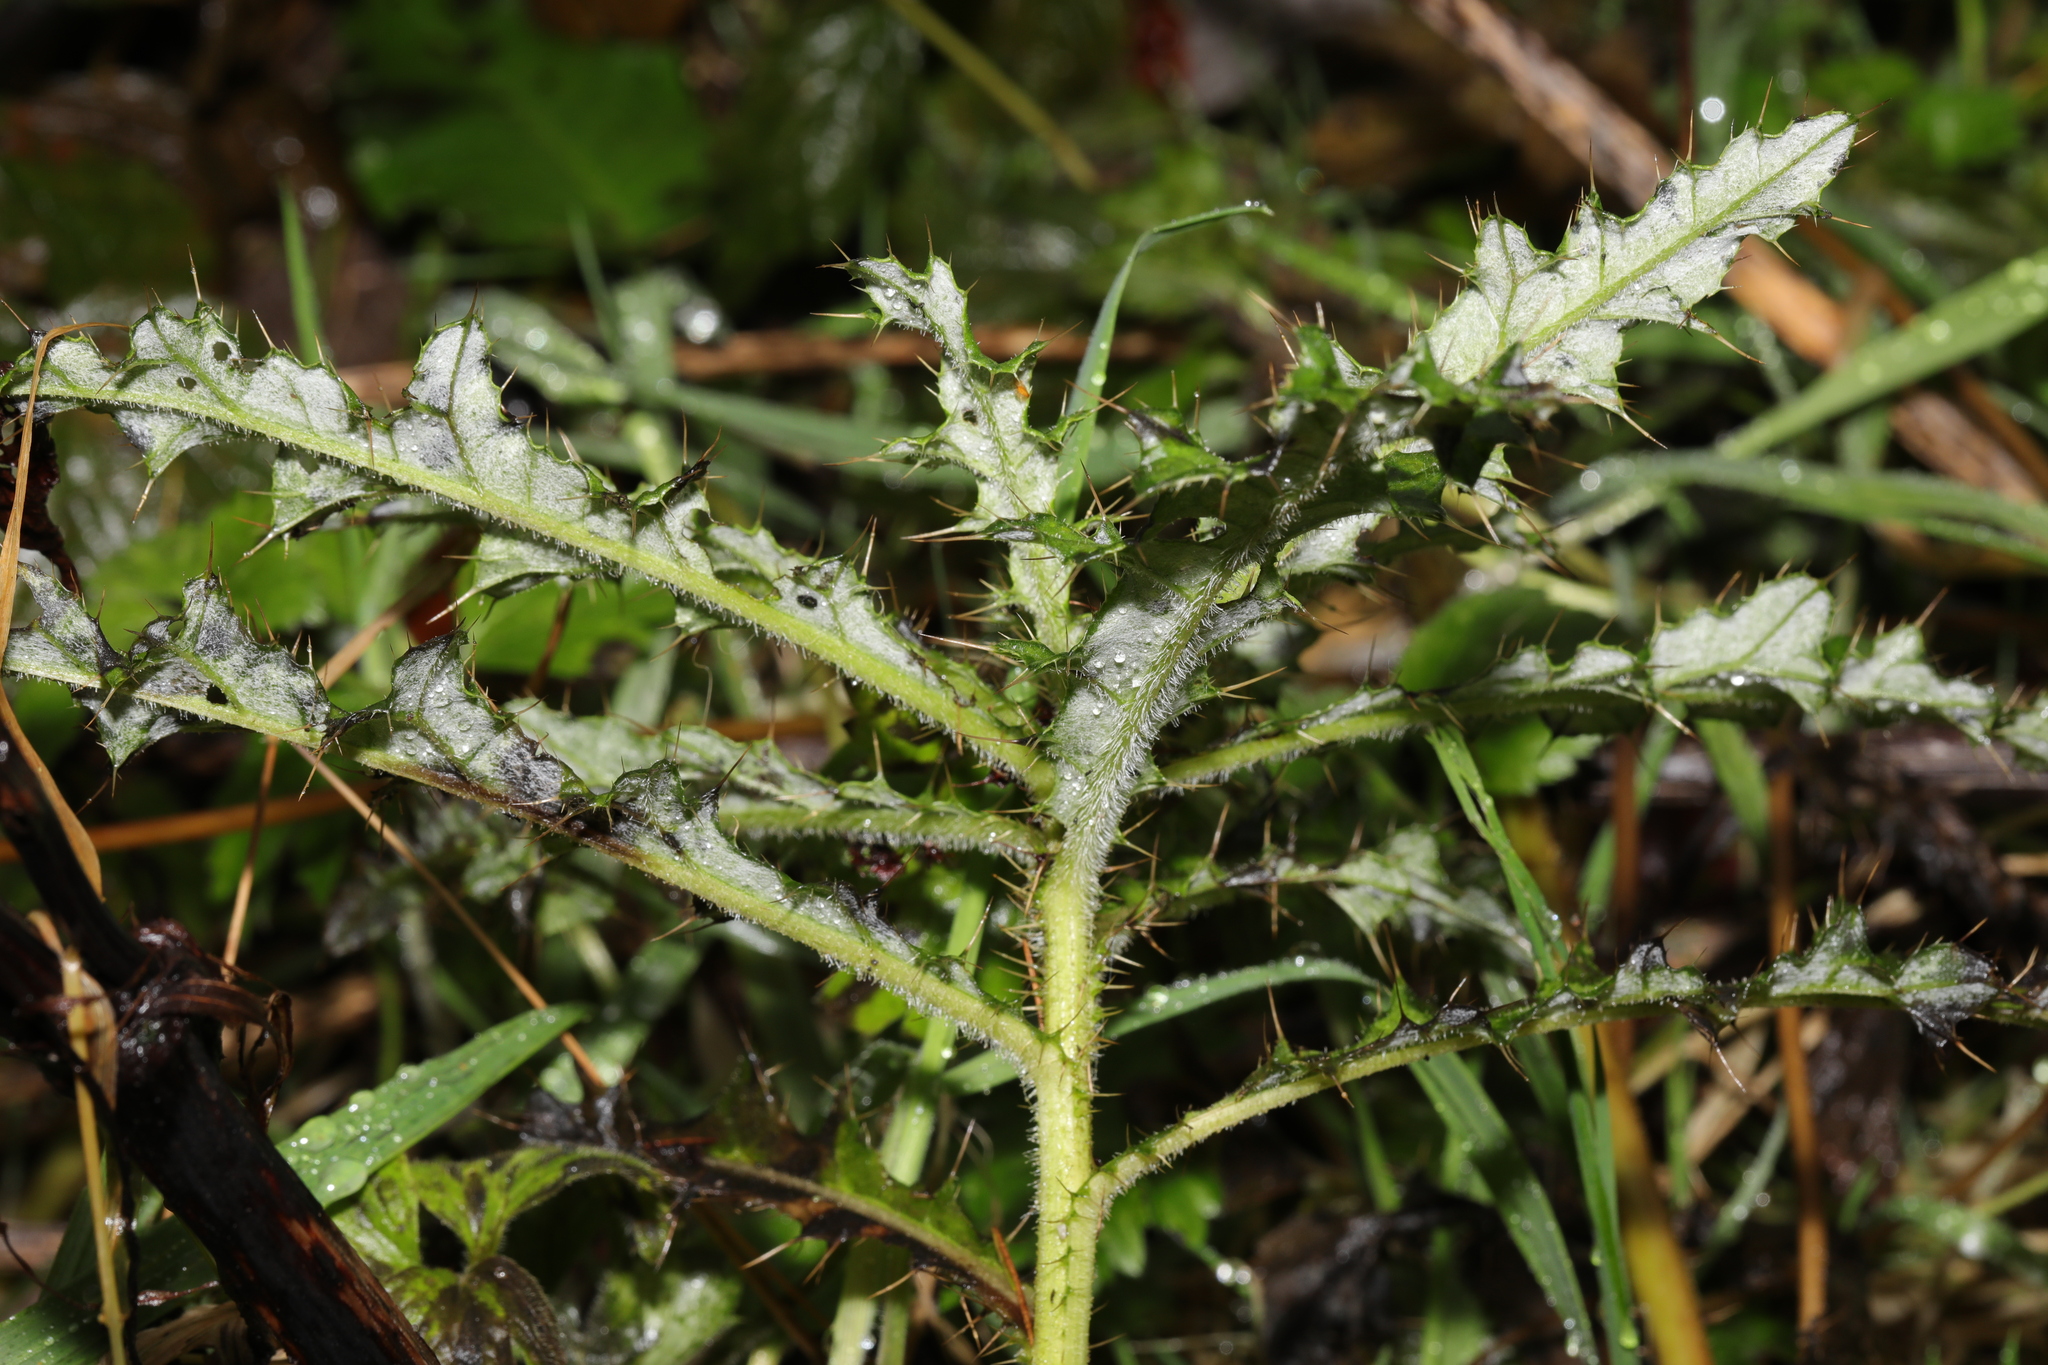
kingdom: Plantae
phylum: Tracheophyta
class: Magnoliopsida
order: Asterales
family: Asteraceae
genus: Cirsium
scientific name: Cirsium arvense
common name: Creeping thistle
